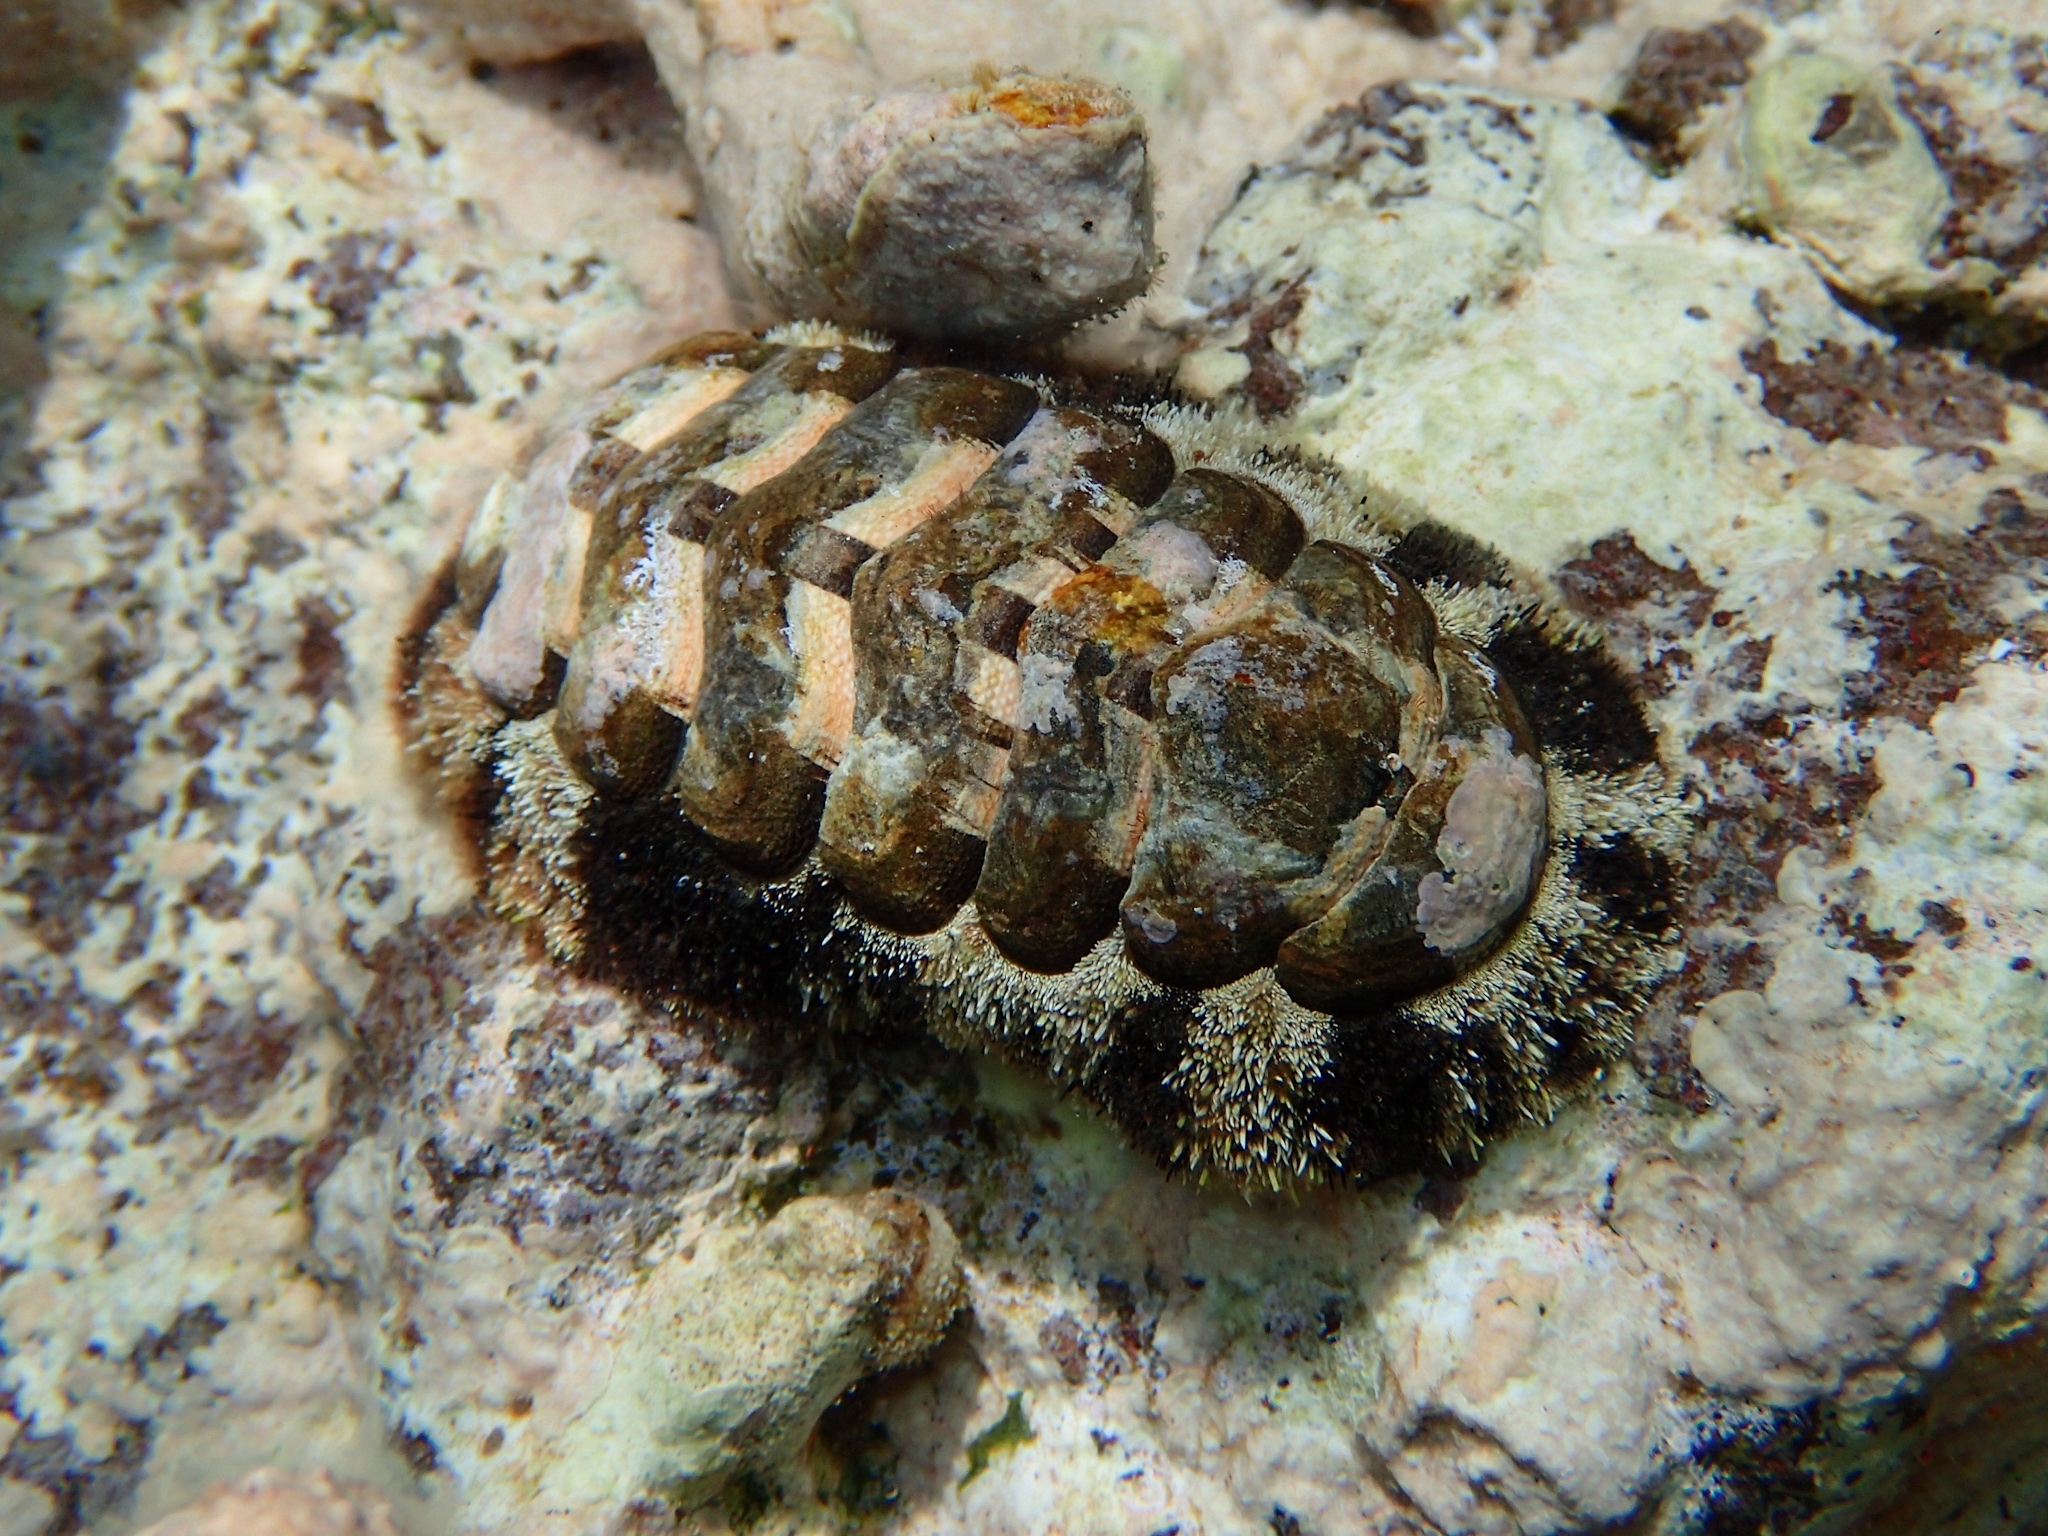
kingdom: Animalia
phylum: Mollusca
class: Polyplacophora
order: Chitonida
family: Chitonidae
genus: Acanthopleura
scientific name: Acanthopleura granulata
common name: West indian fuzzy chiton
